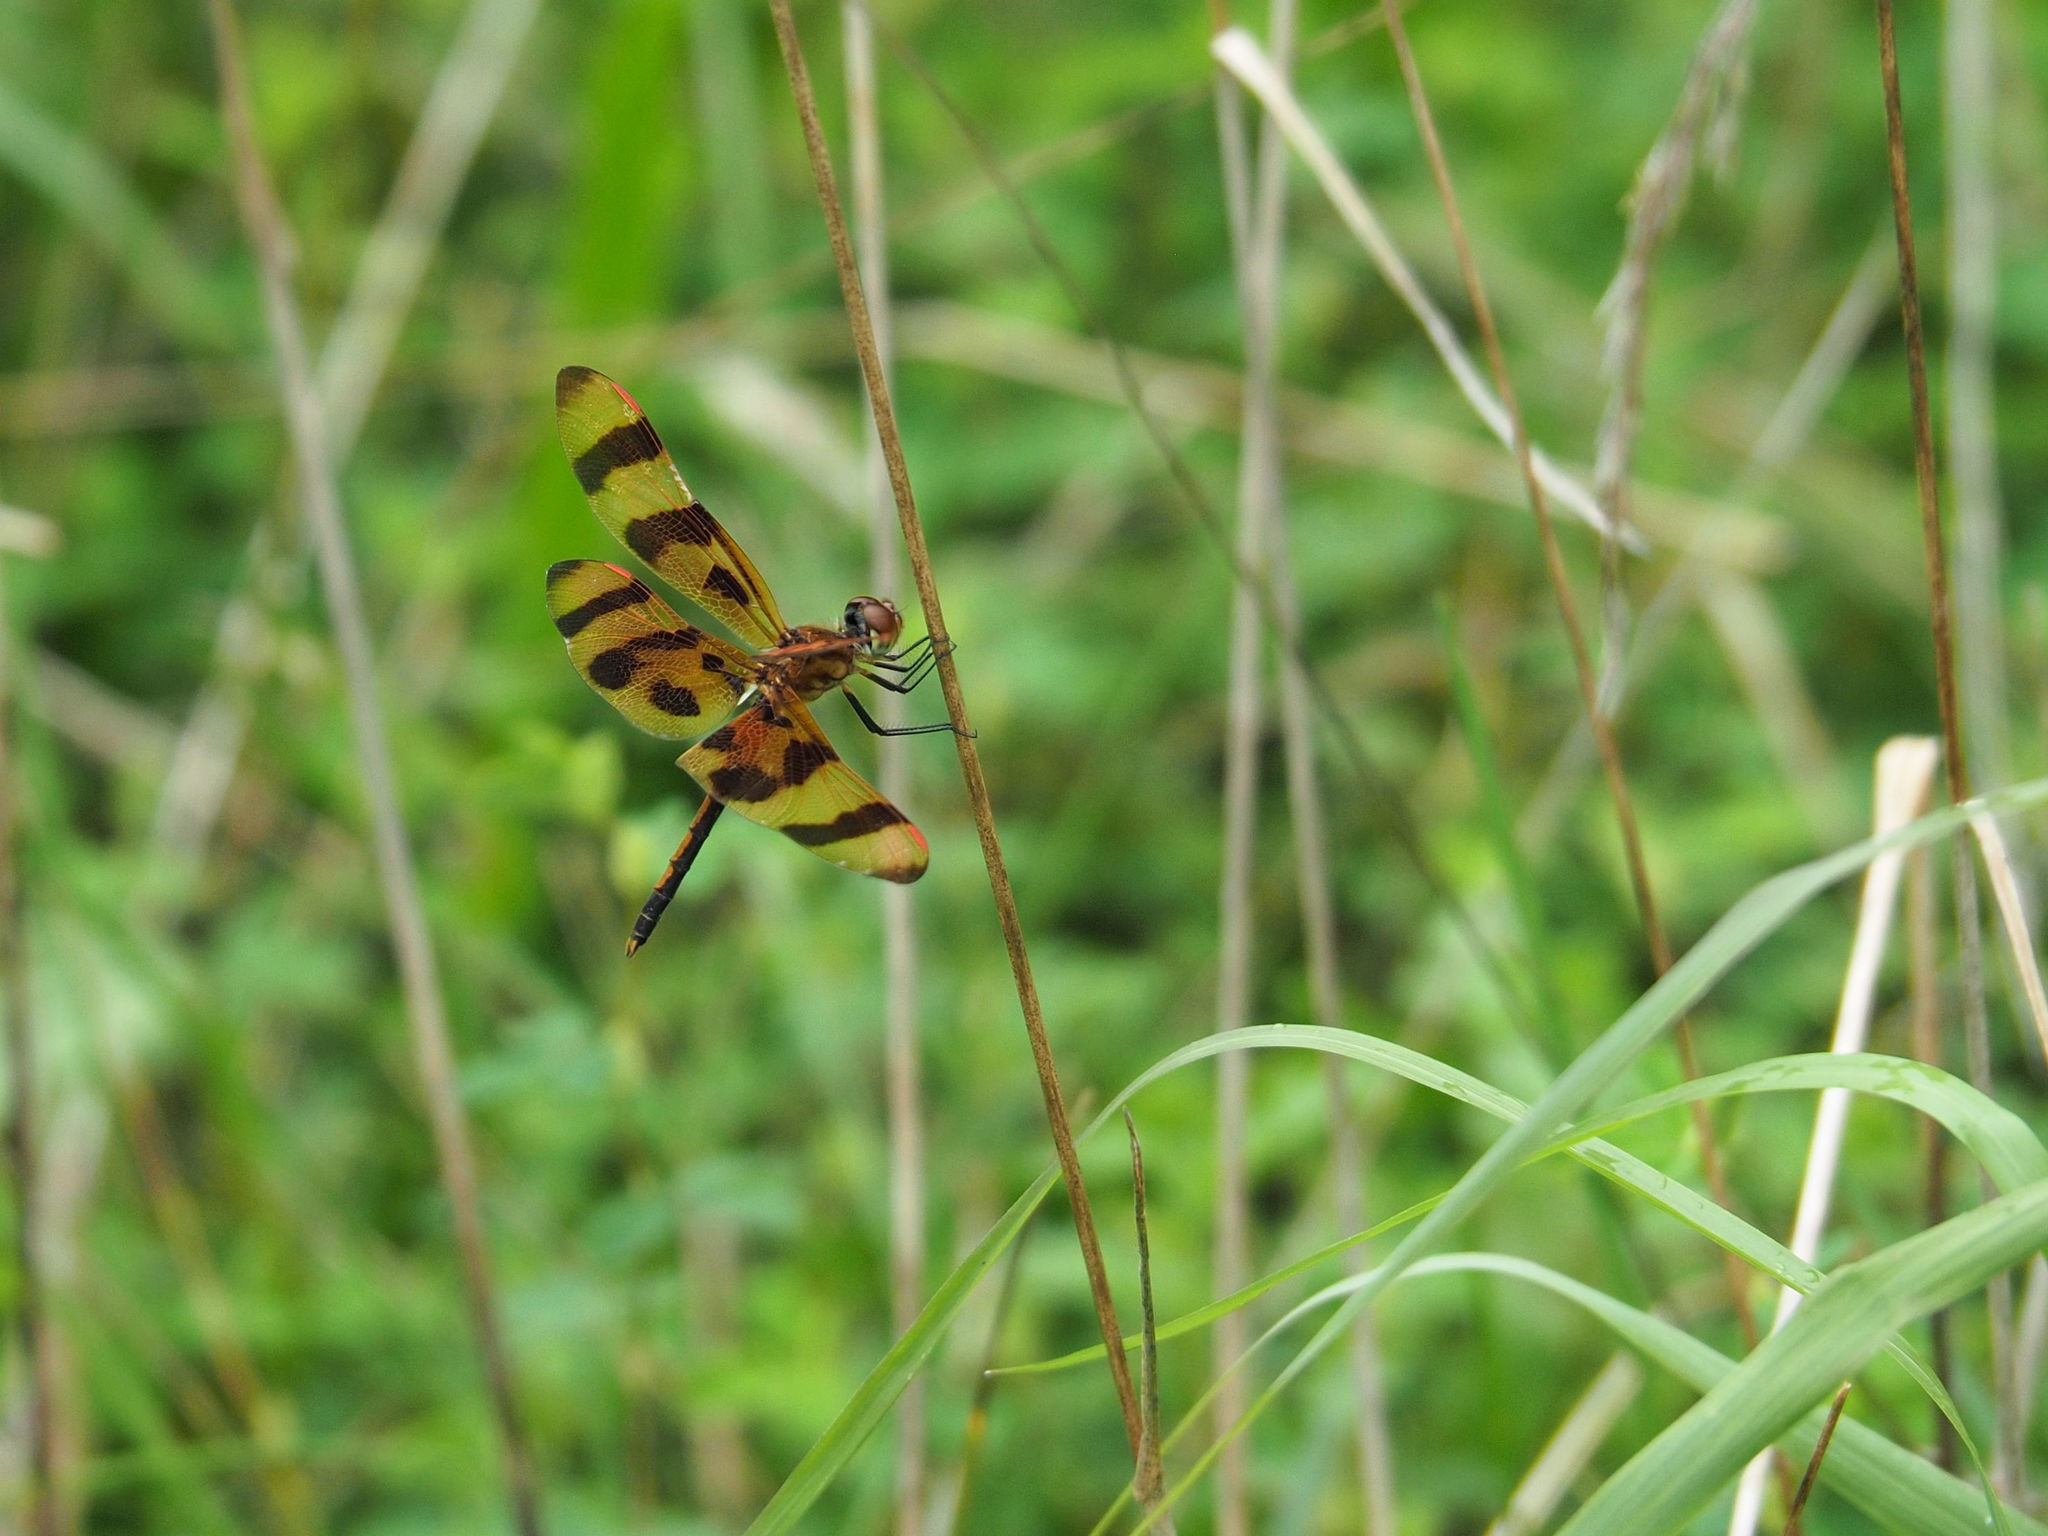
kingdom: Animalia
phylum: Arthropoda
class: Insecta
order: Odonata
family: Libellulidae
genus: Celithemis
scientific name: Celithemis eponina
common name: Halloween pennant
